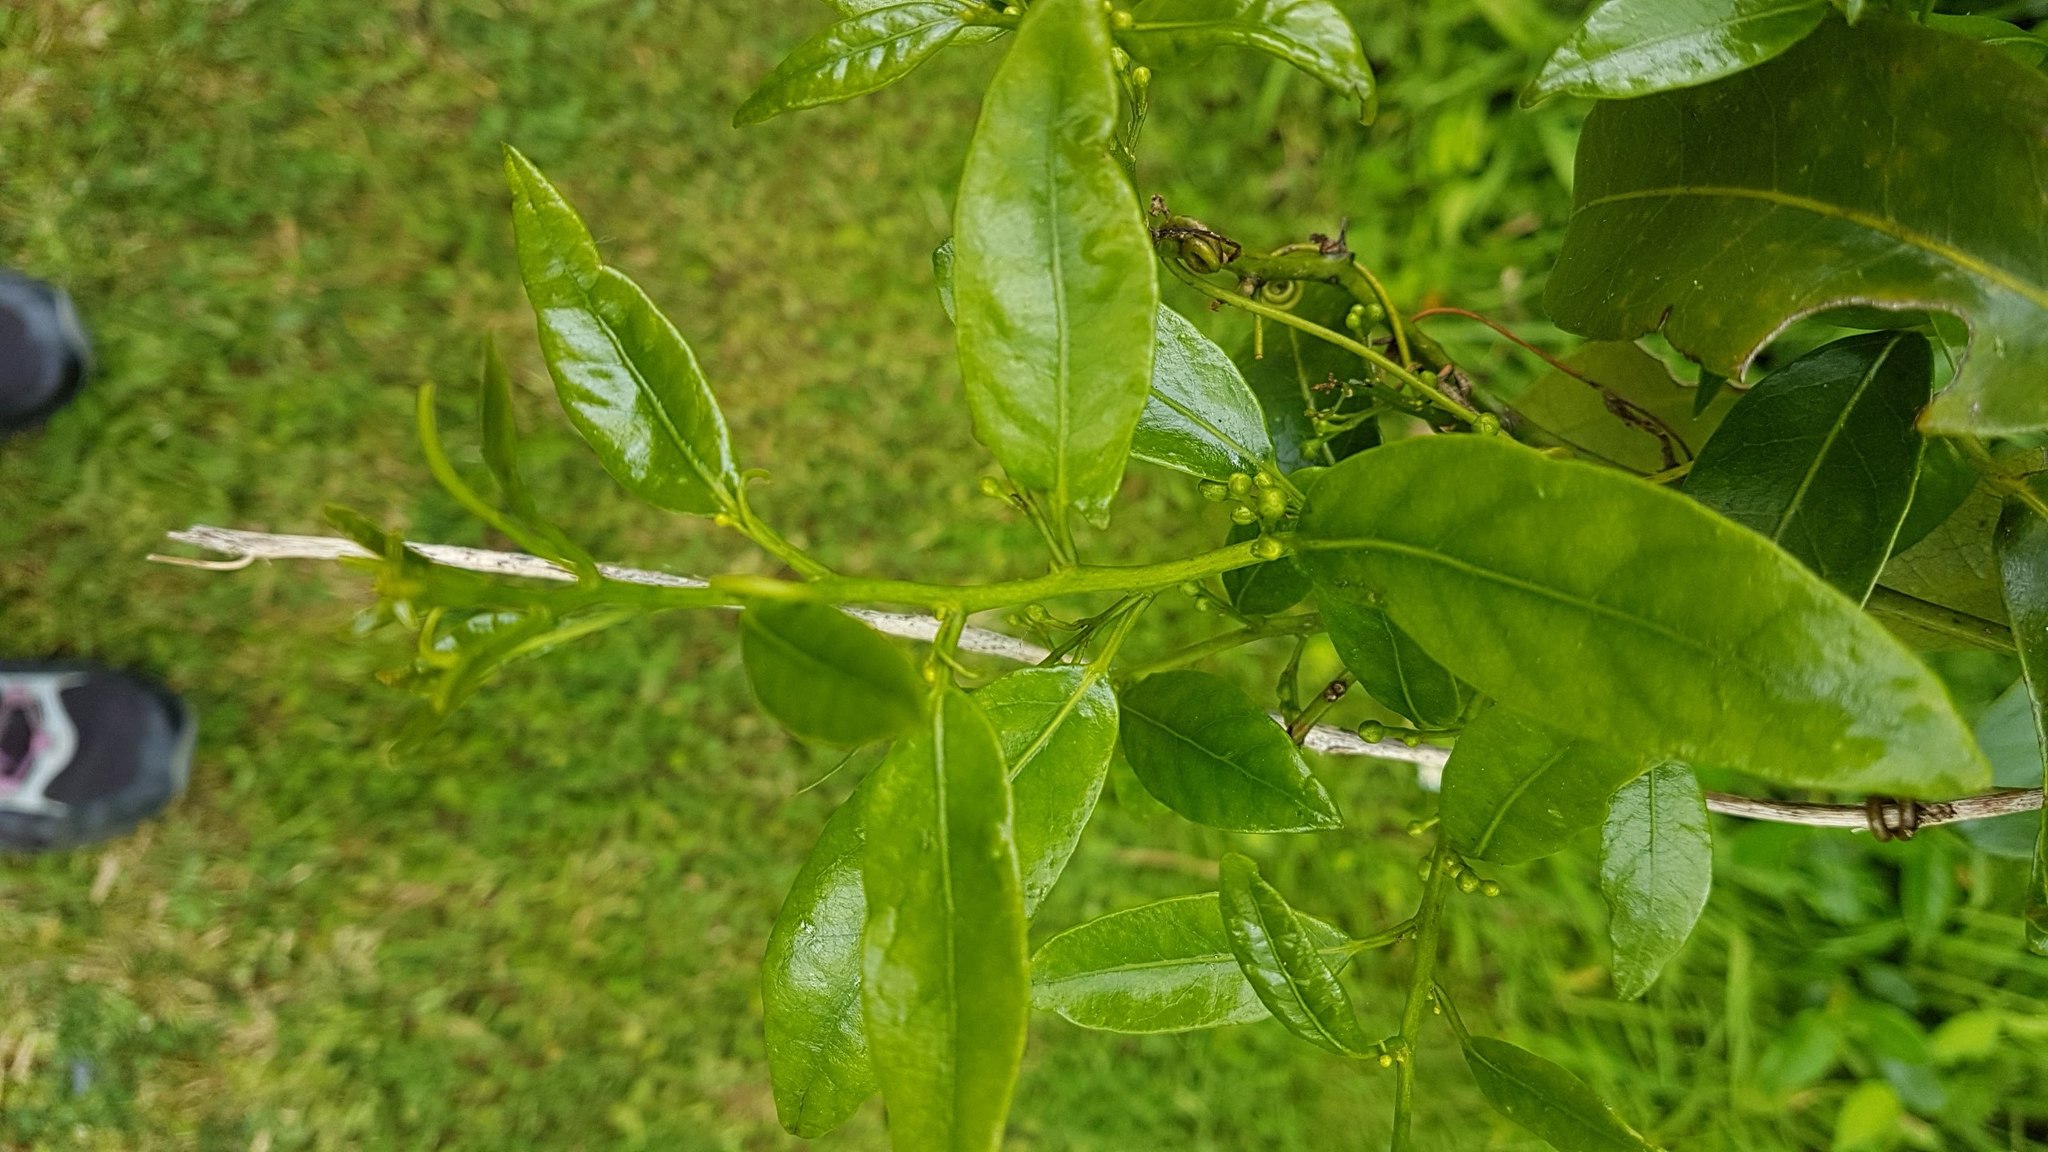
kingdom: Plantae
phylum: Tracheophyta
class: Magnoliopsida
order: Malpighiales
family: Passifloraceae
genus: Passiflora
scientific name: Passiflora tetrandra
